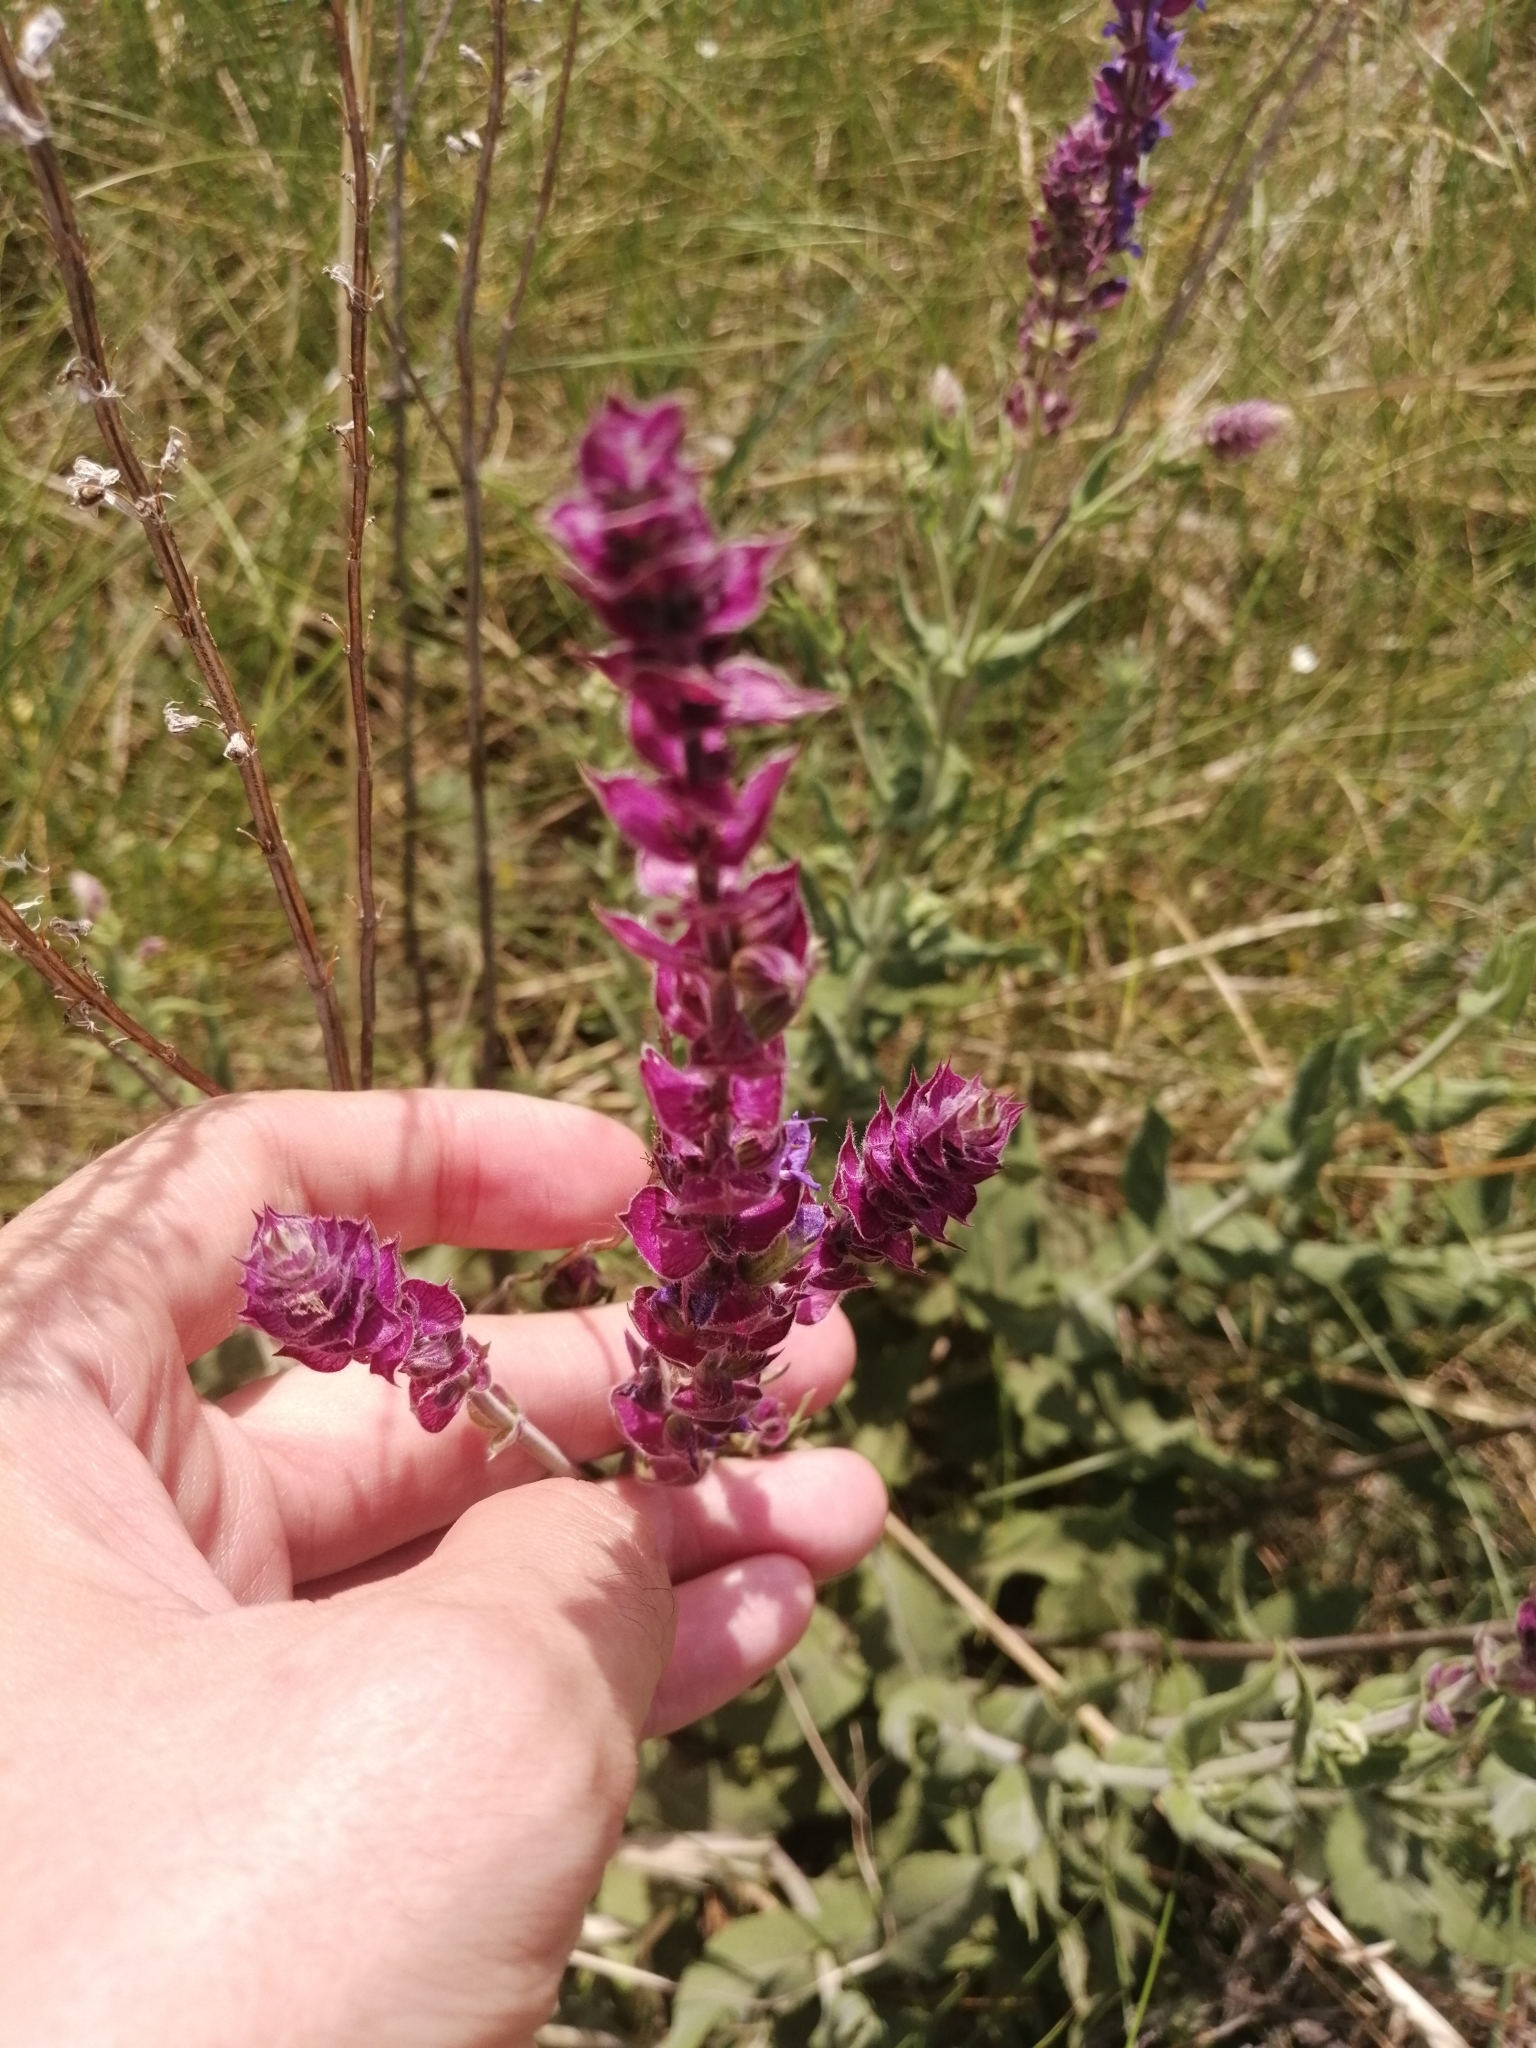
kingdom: Plantae
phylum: Tracheophyta
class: Magnoliopsida
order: Lamiales
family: Lamiaceae
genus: Salvia
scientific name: Salvia nemorosa
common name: Balkan clary
